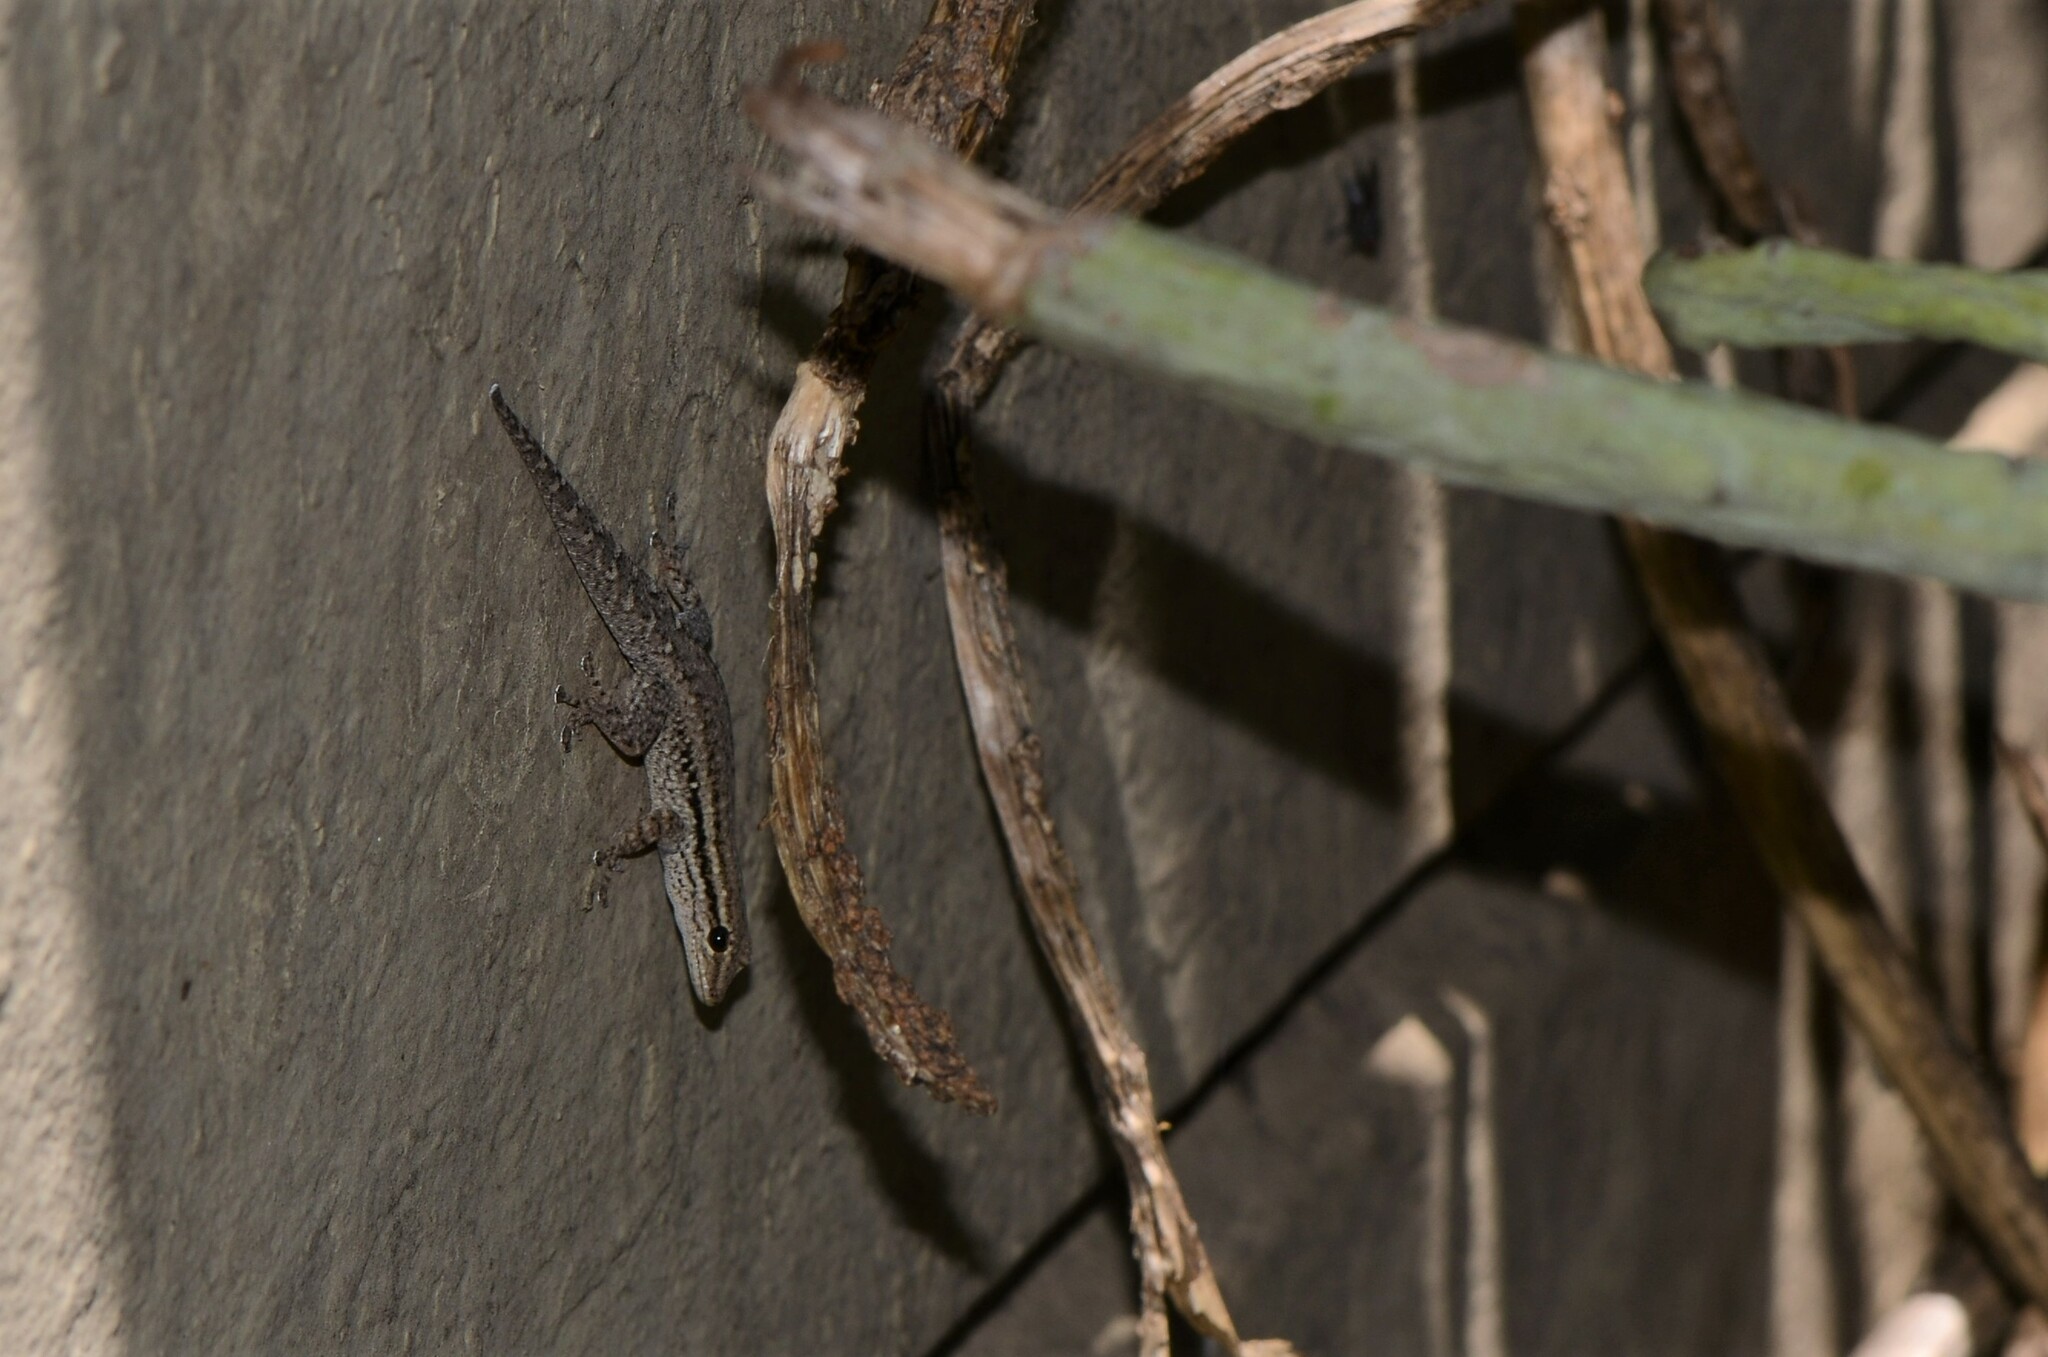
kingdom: Animalia
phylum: Chordata
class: Squamata
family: Gekkonidae
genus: Lygodactylus
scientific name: Lygodactylus capensis
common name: Cape dwarf gecko
